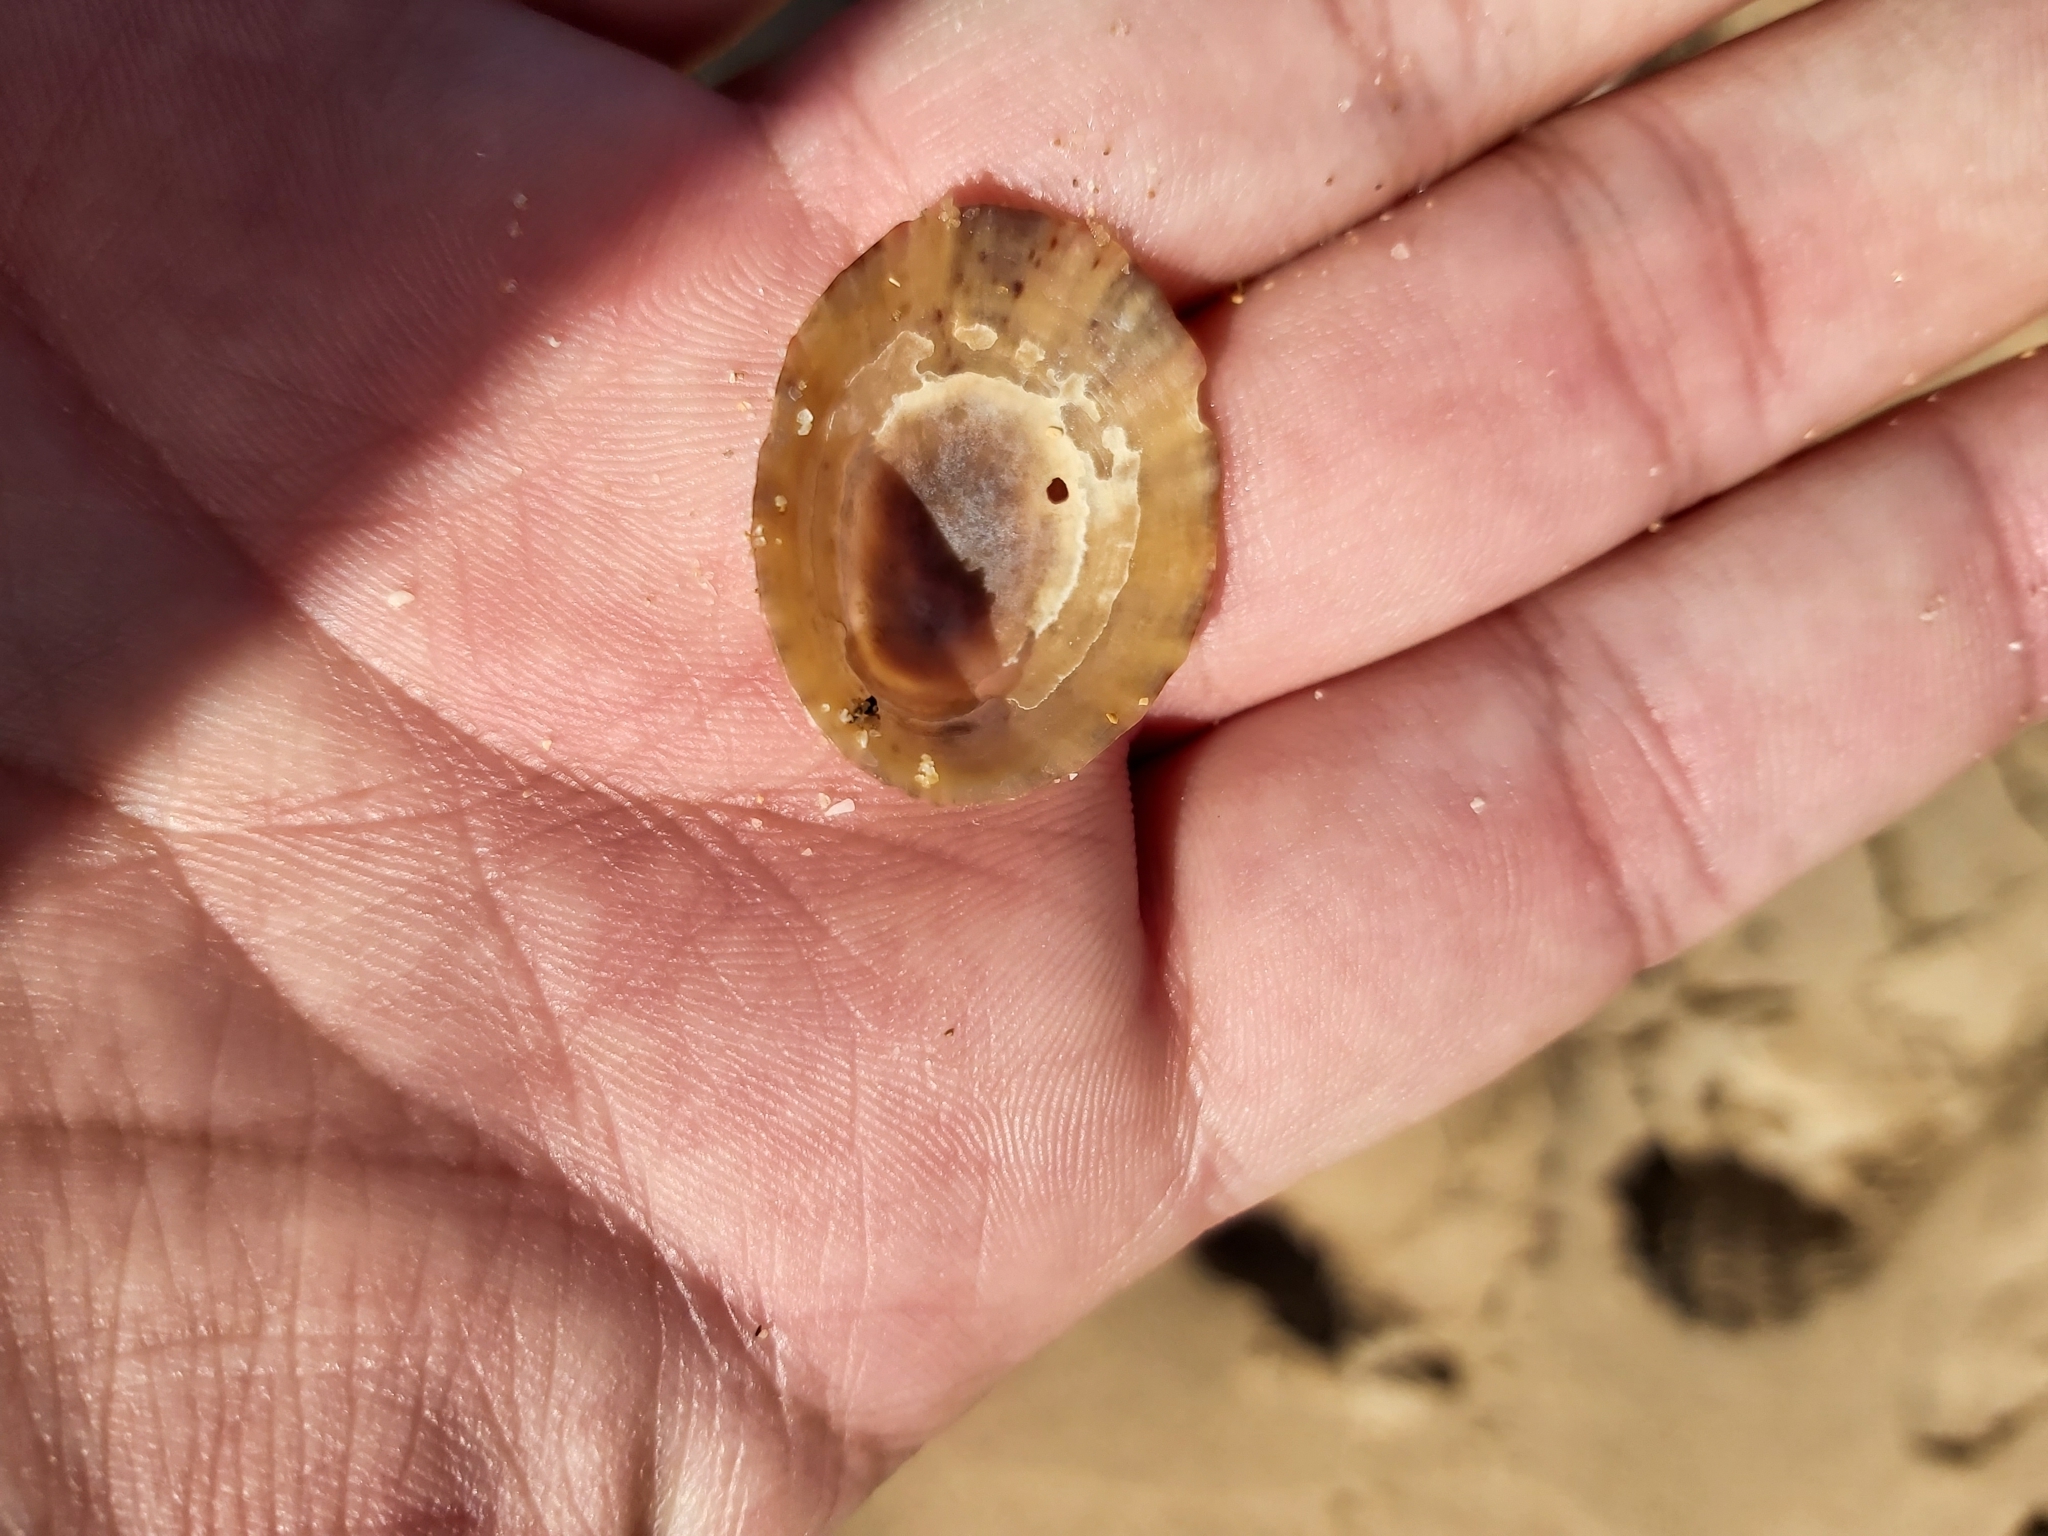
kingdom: Animalia
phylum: Mollusca
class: Gastropoda
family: Nacellidae
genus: Cellana
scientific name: Cellana tramoserica
